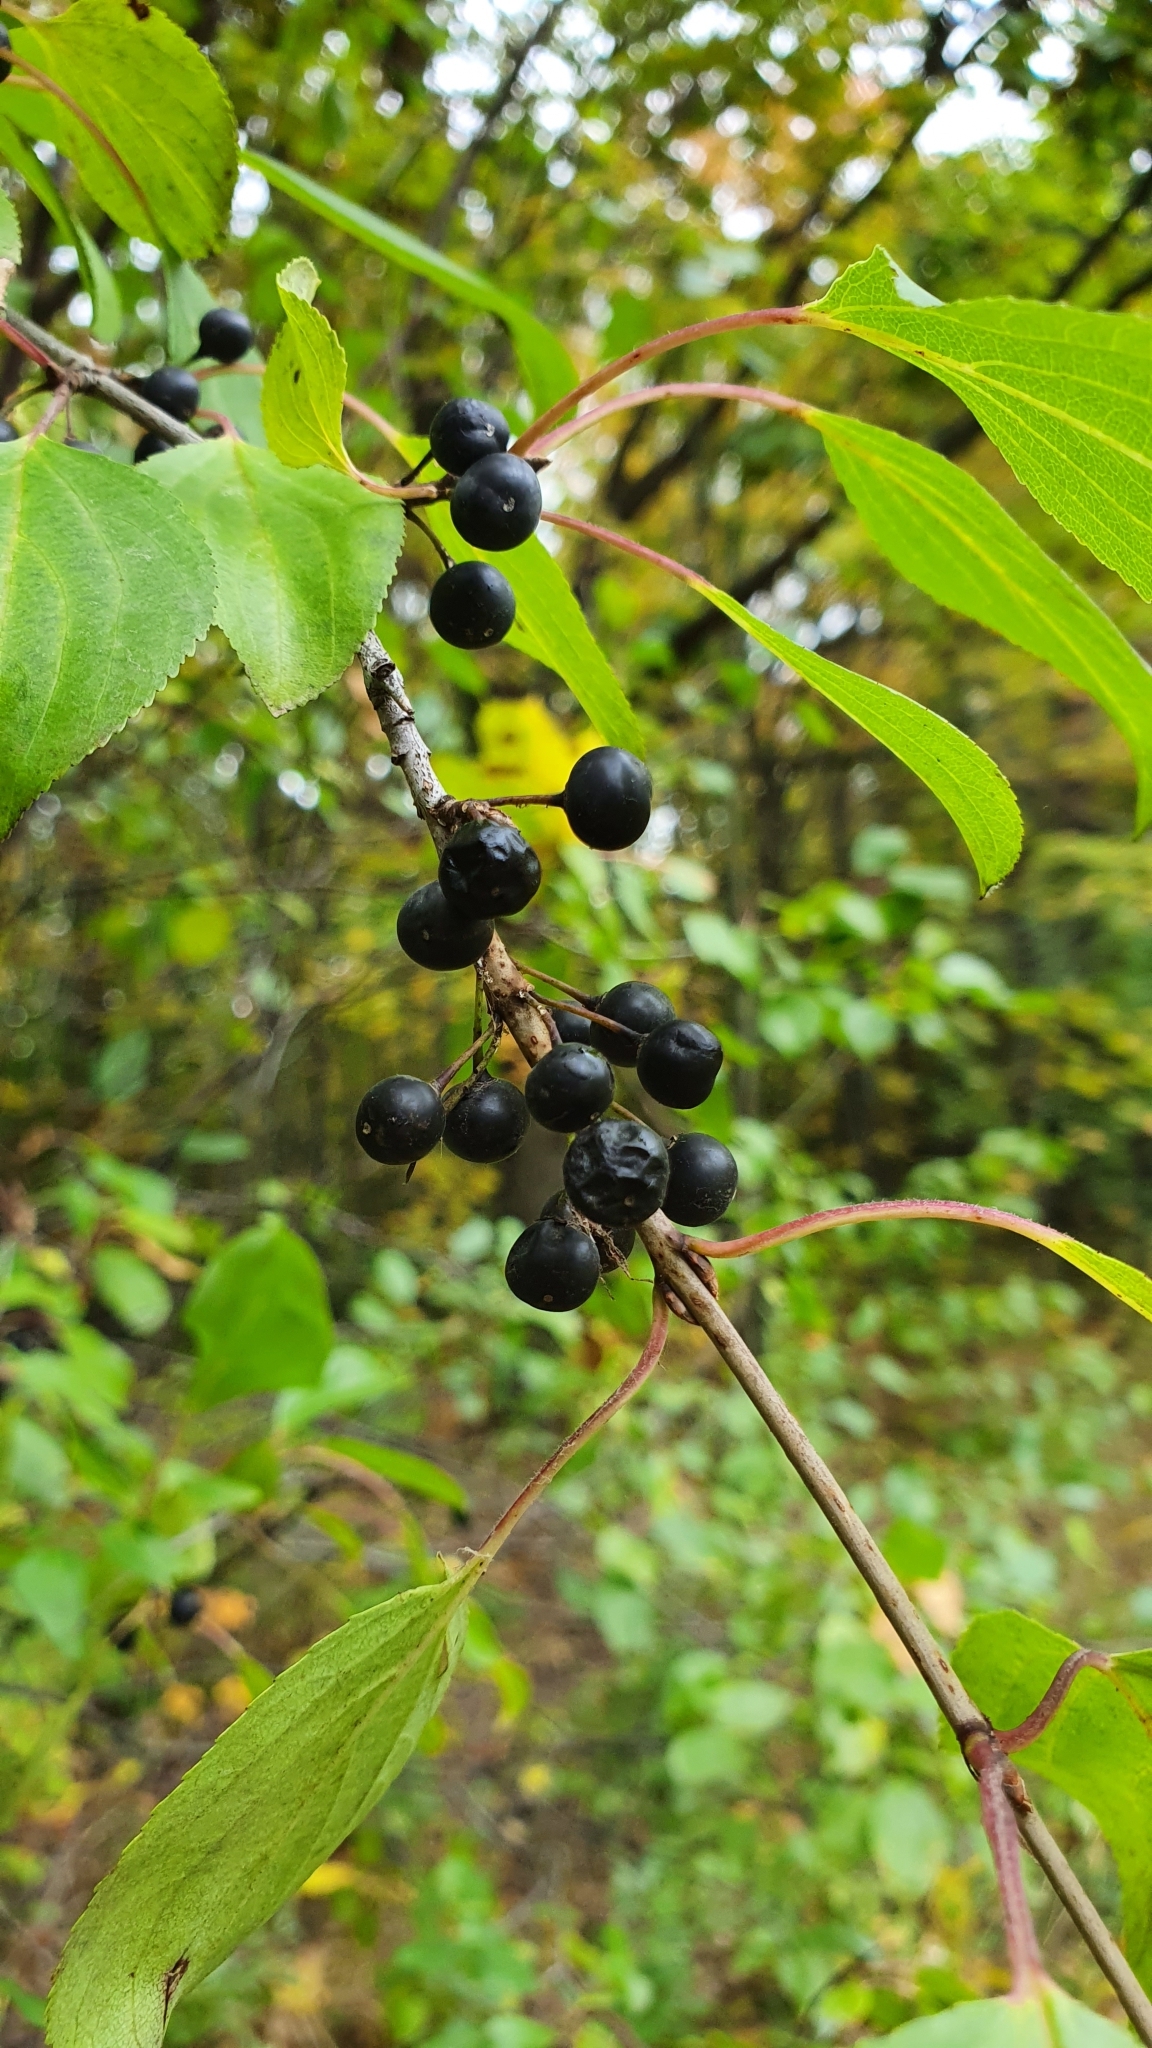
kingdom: Plantae
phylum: Tracheophyta
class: Magnoliopsida
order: Rosales
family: Rhamnaceae
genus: Rhamnus
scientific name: Rhamnus cathartica
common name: Common buckthorn
